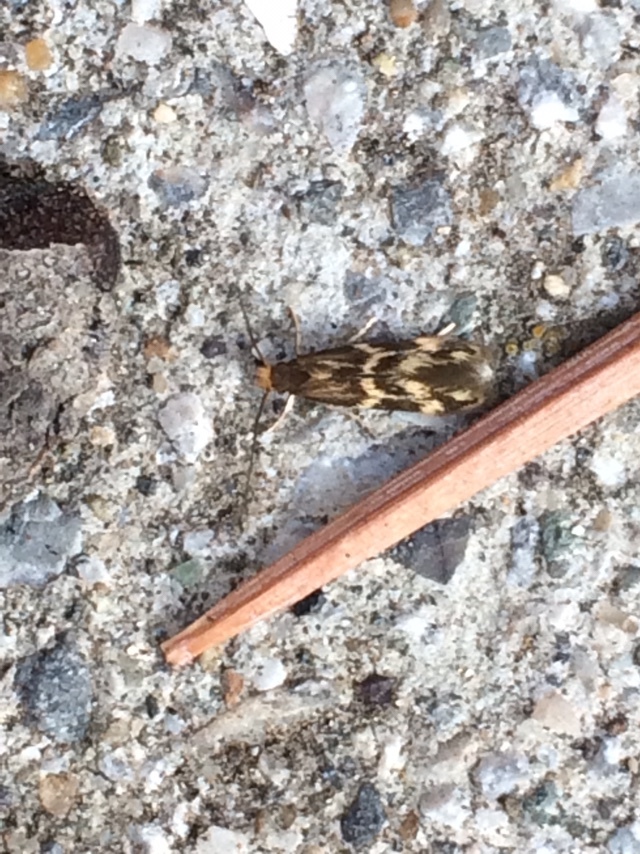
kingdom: Animalia
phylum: Arthropoda
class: Insecta
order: Lepidoptera
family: Tineidae
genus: Oinophila
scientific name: Oinophila v-flava
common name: Yellow v moth
